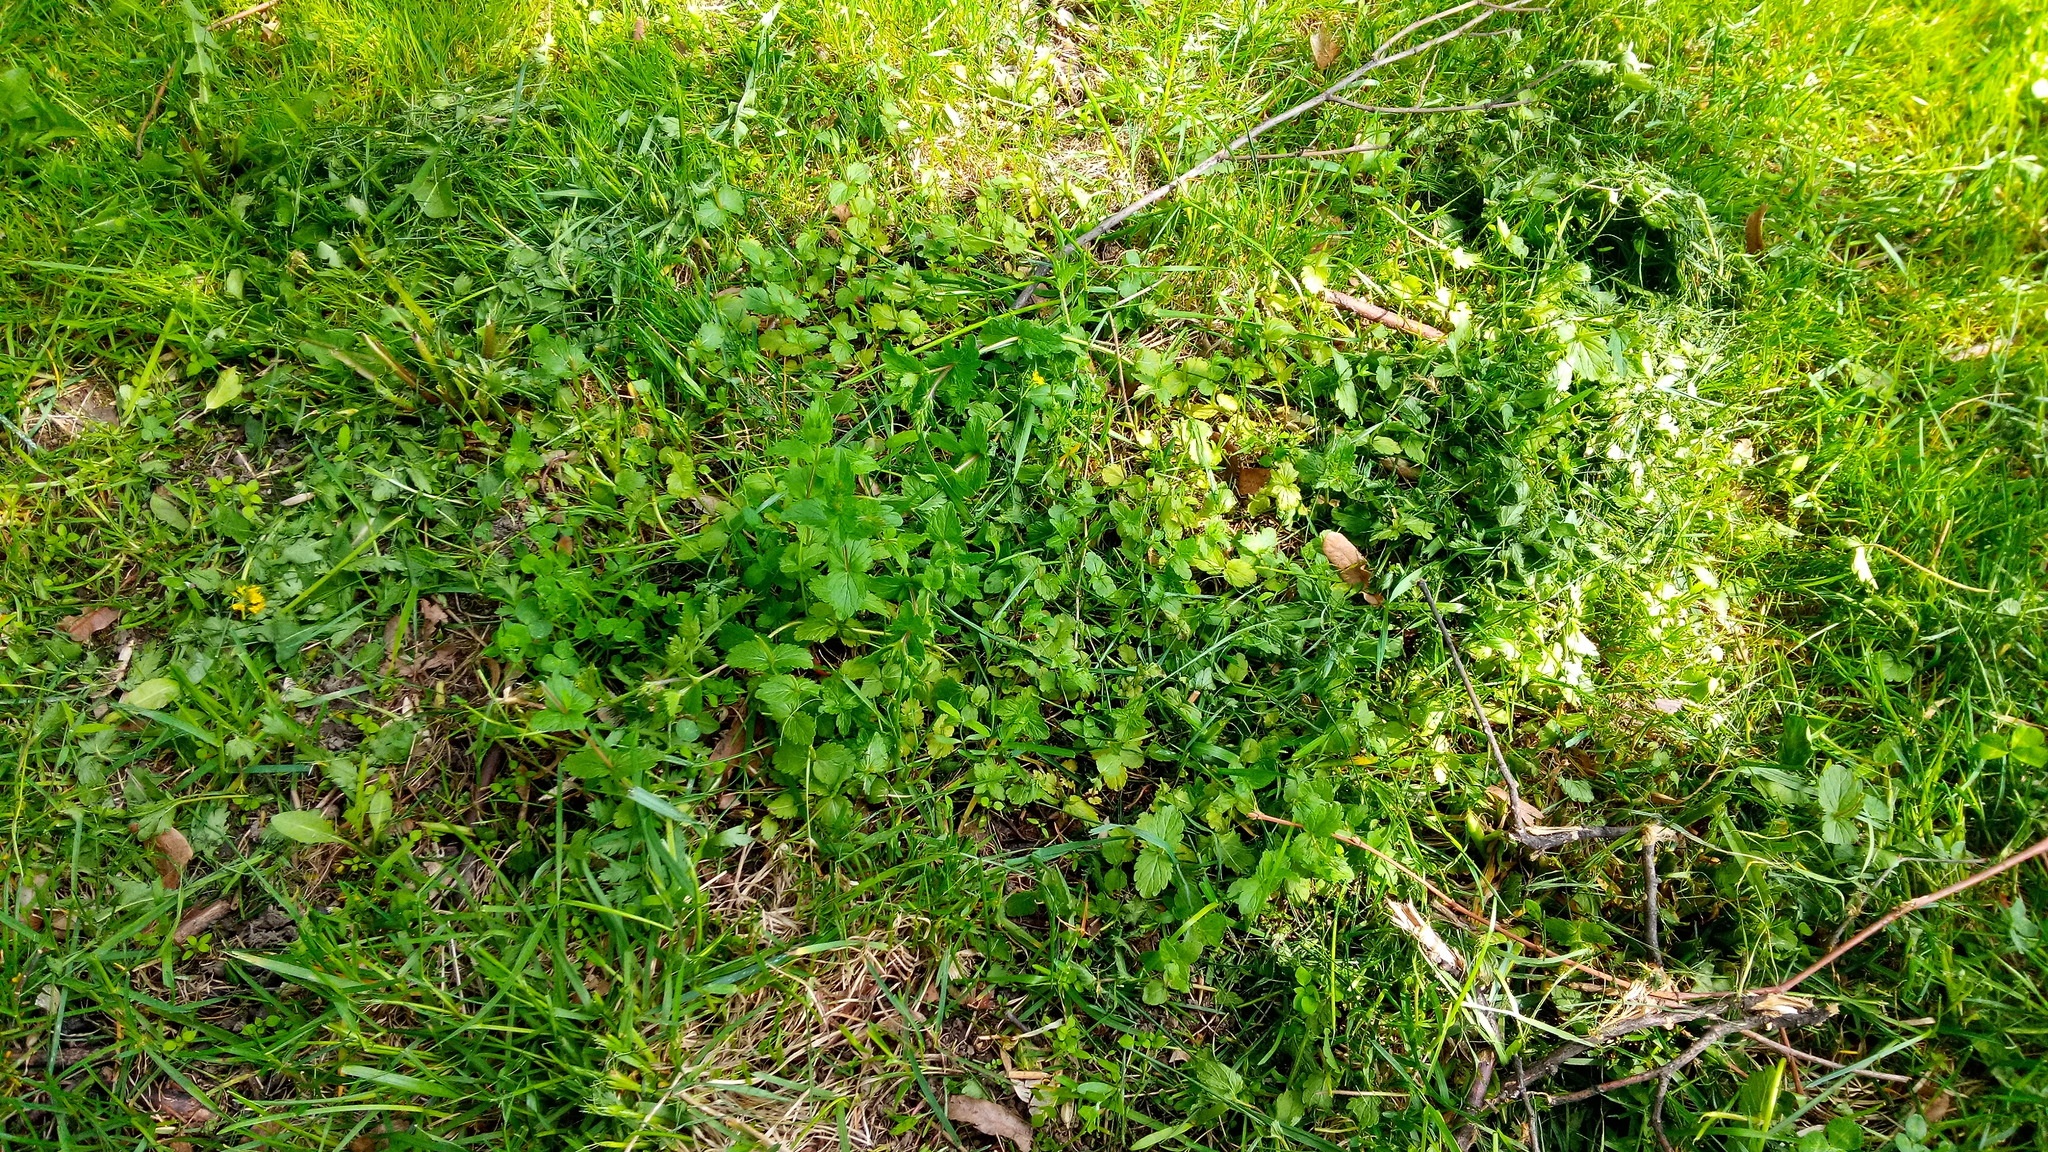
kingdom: Plantae
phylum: Tracheophyta
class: Magnoliopsida
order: Lamiales
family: Plantaginaceae
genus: Veronica
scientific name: Veronica chamaedrys
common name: Germander speedwell
